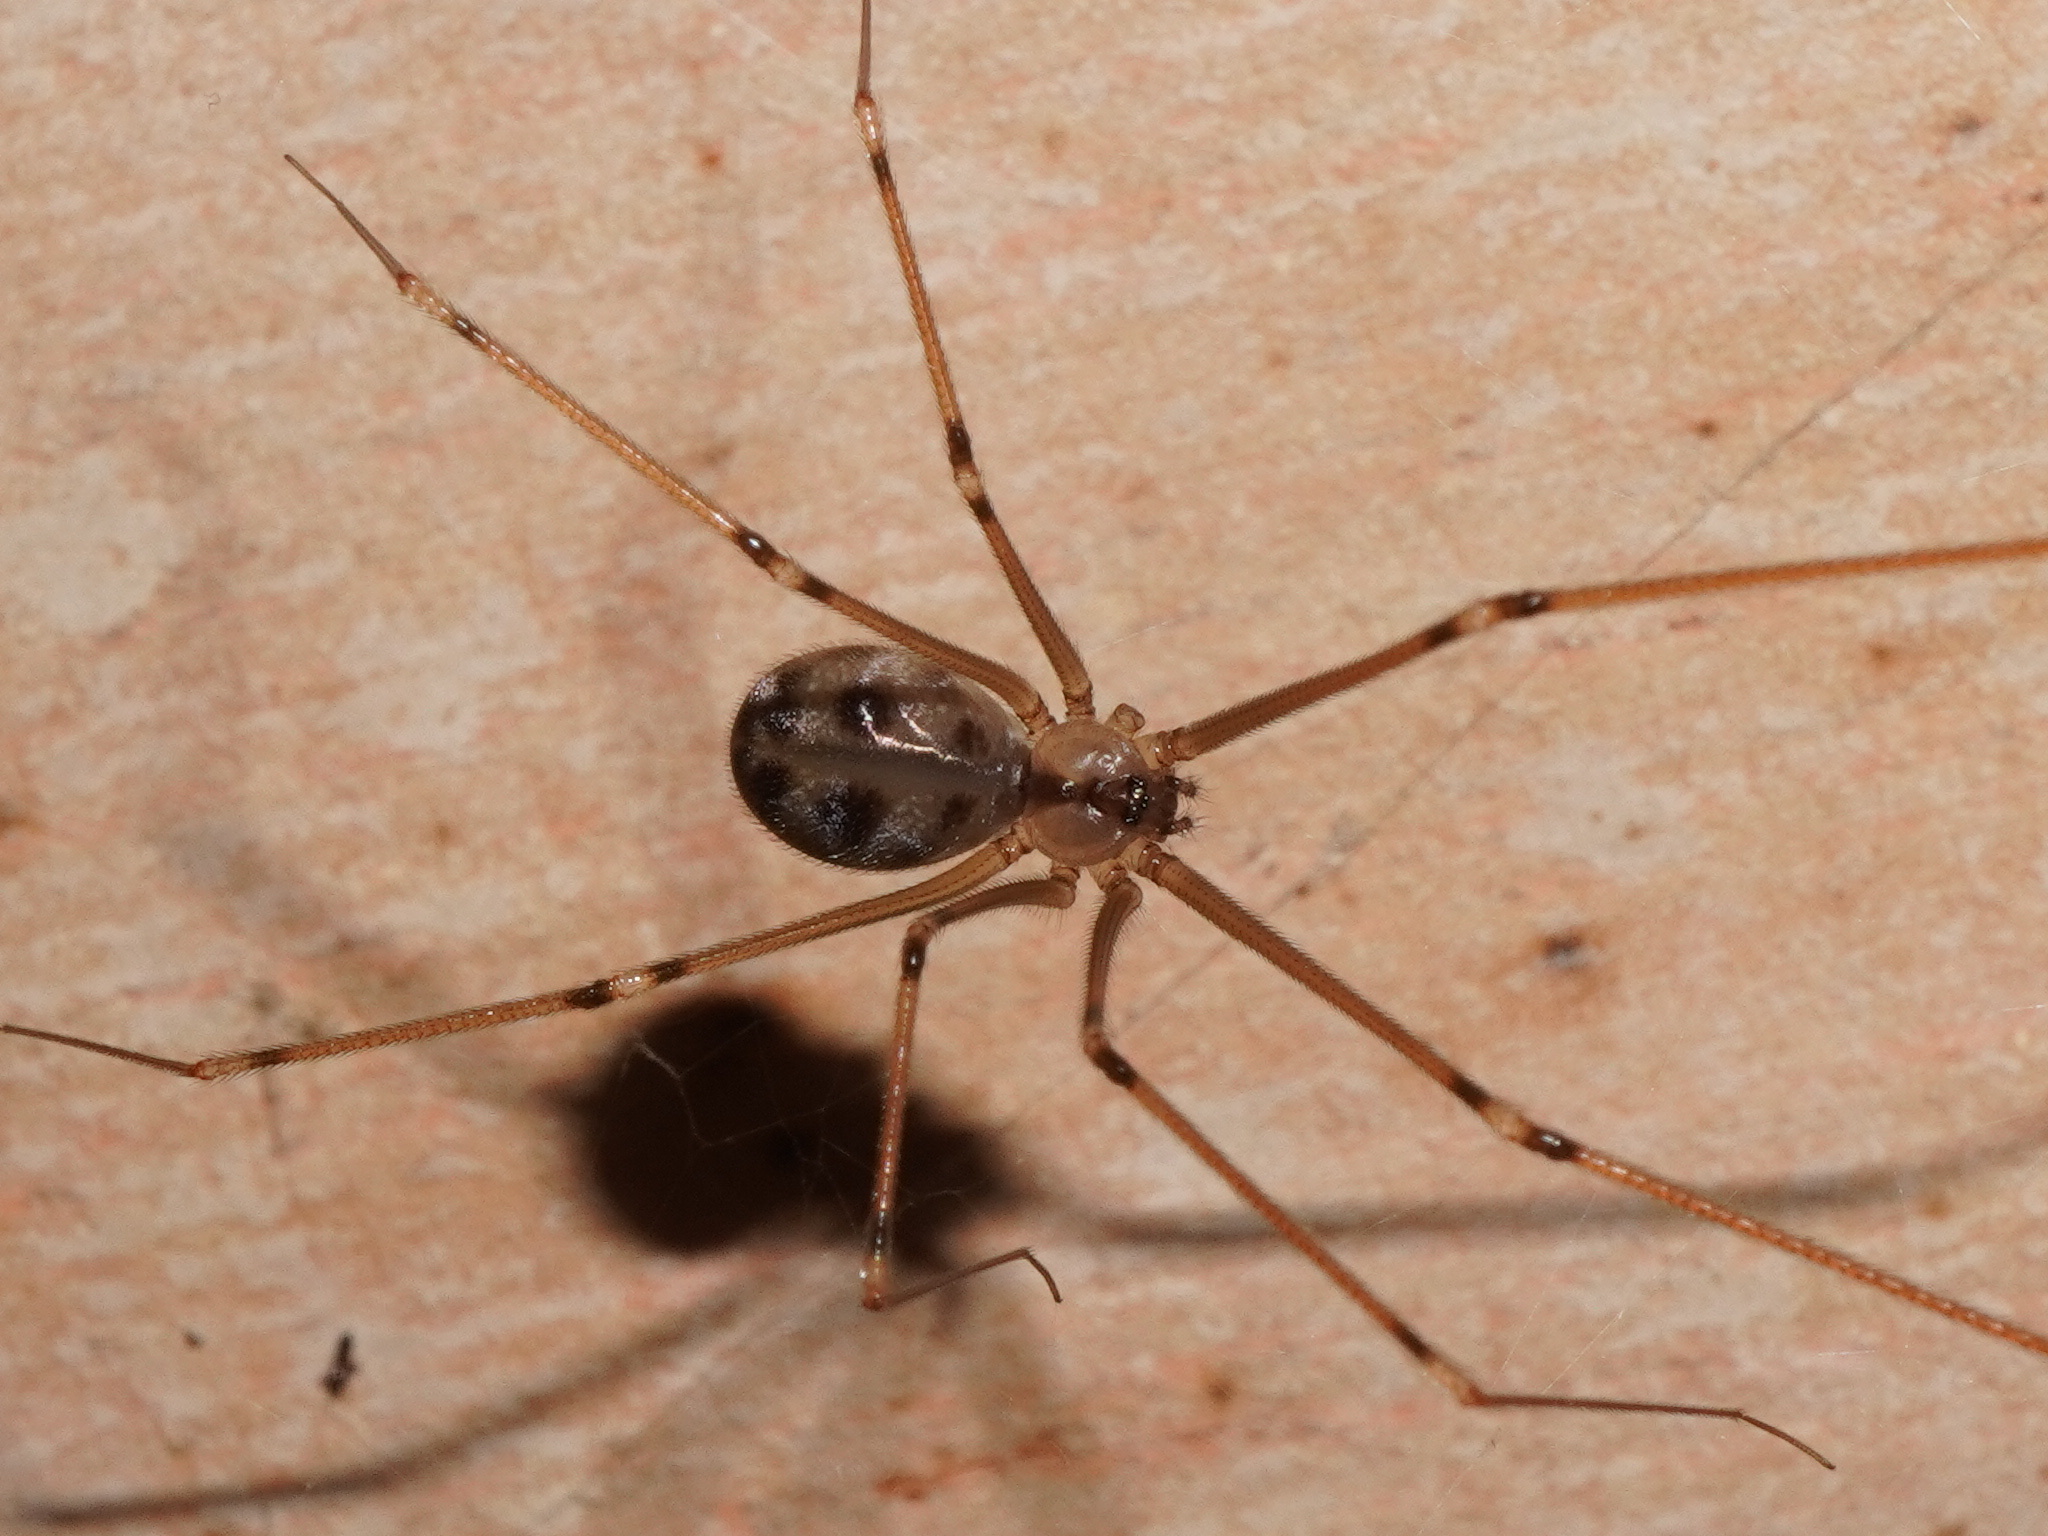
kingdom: Animalia
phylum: Arthropoda
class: Arachnida
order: Araneae
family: Pholcidae
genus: Hoplopholcus
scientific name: Hoplopholcus forskali
